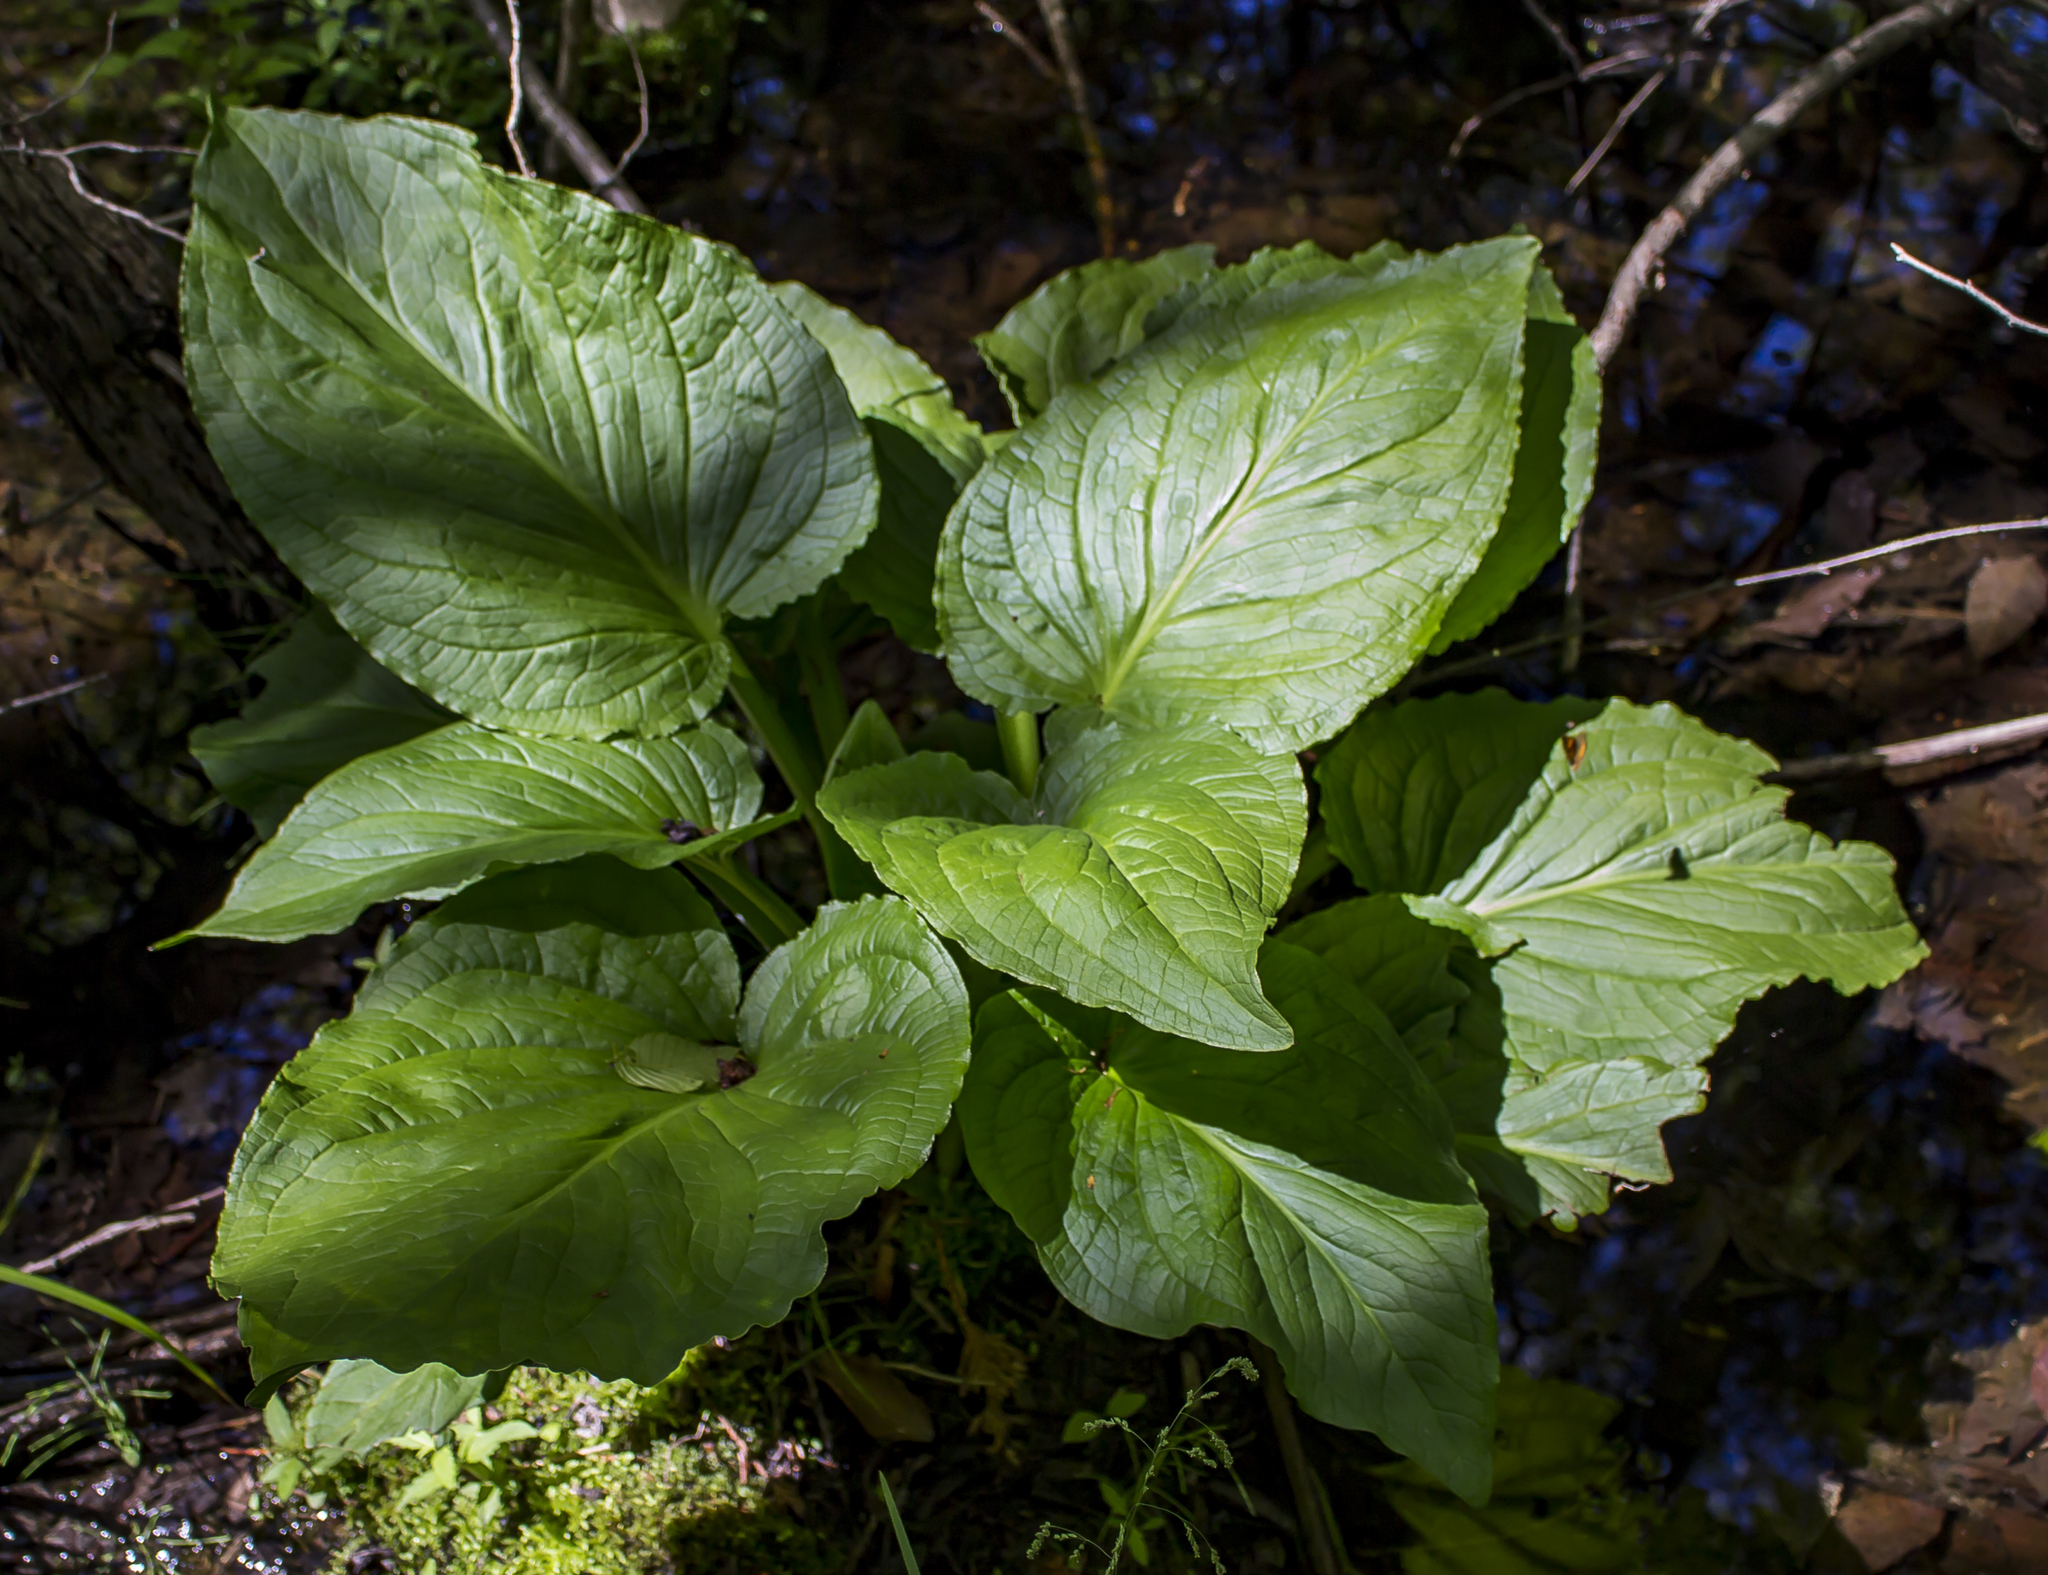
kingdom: Plantae
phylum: Tracheophyta
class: Liliopsida
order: Alismatales
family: Araceae
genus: Symplocarpus
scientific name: Symplocarpus foetidus
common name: Eastern skunk cabbage
